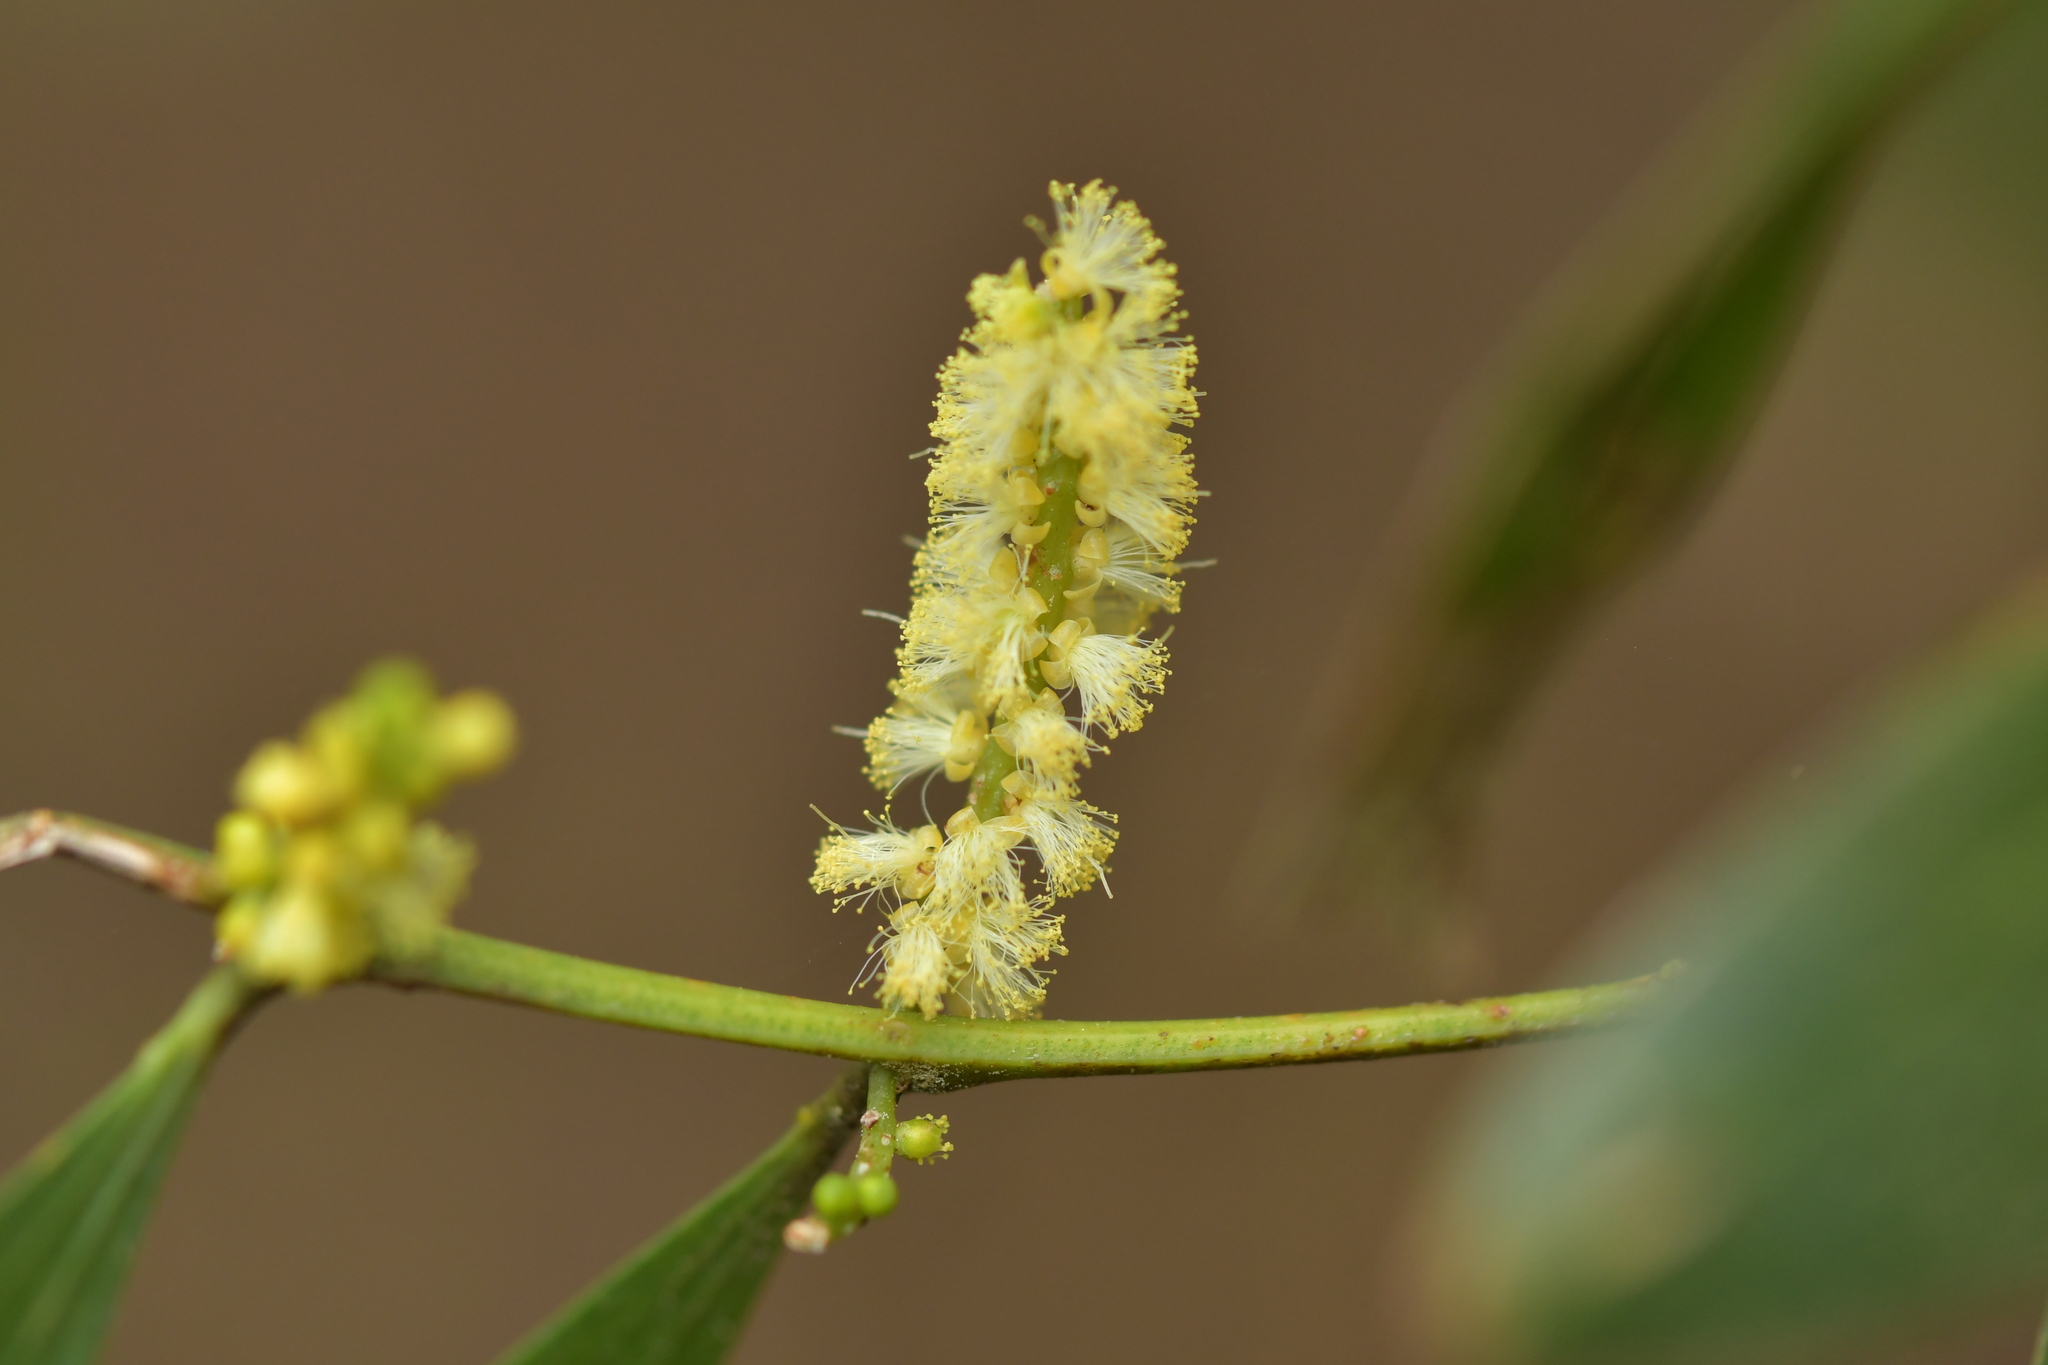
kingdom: Plantae
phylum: Tracheophyta
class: Magnoliopsida
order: Fabales
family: Fabaceae
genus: Acacia
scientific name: Acacia longifolia
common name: Sydney golden wattle
